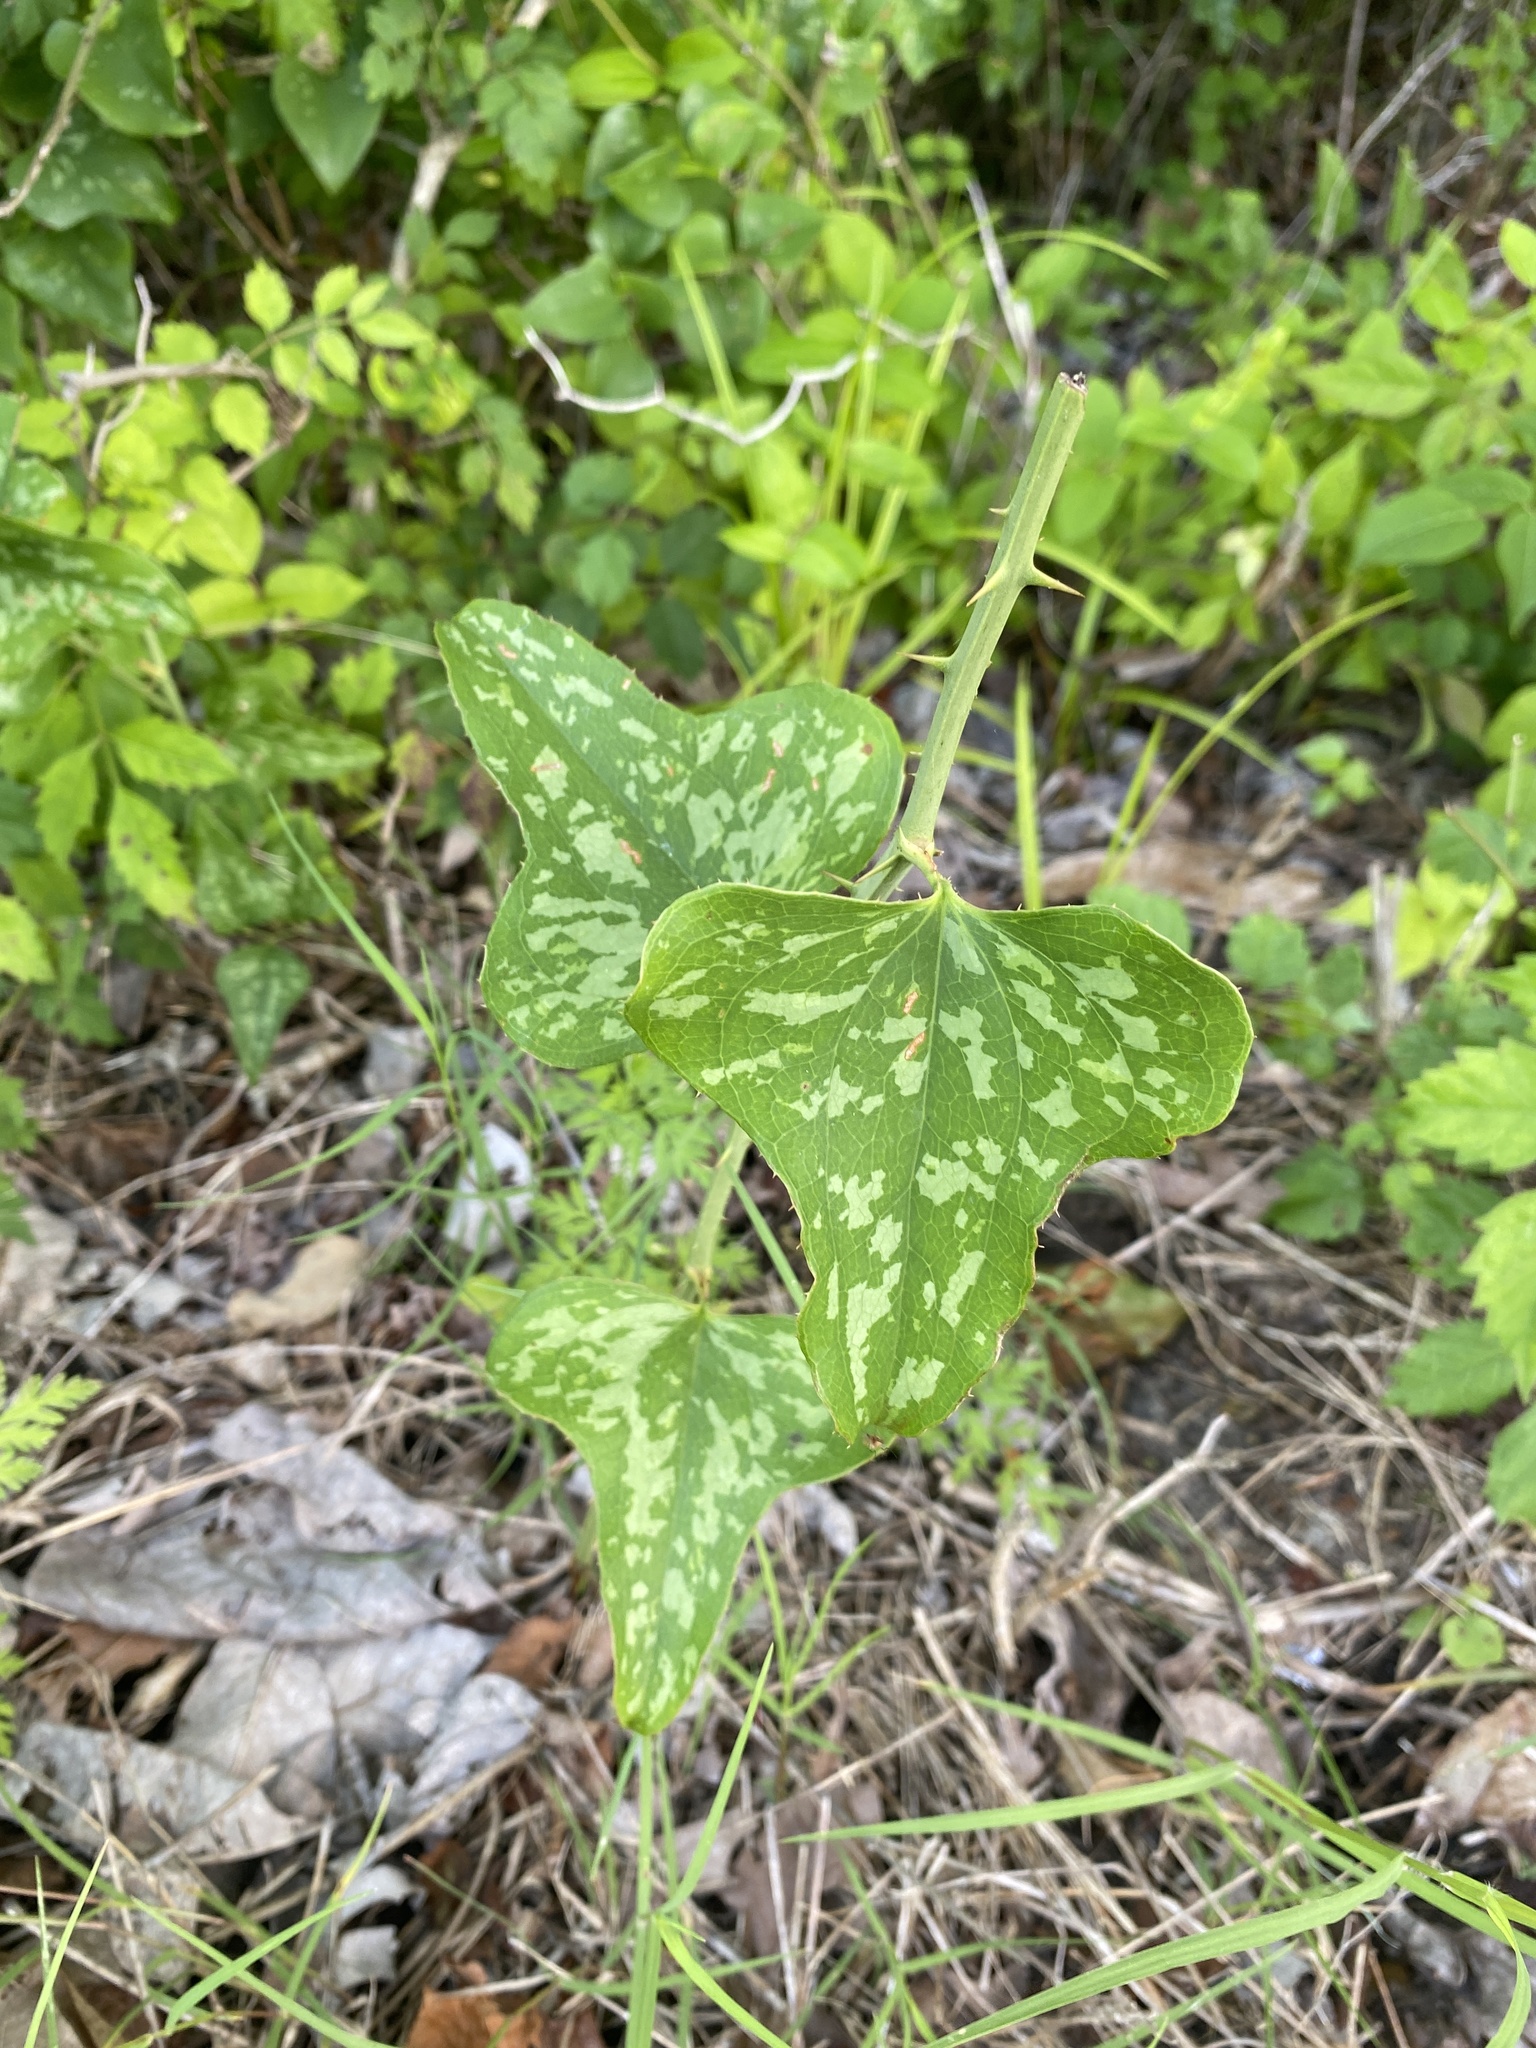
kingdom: Plantae
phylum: Tracheophyta
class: Liliopsida
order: Liliales
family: Smilacaceae
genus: Smilax
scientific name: Smilax bona-nox
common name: Catbrier
